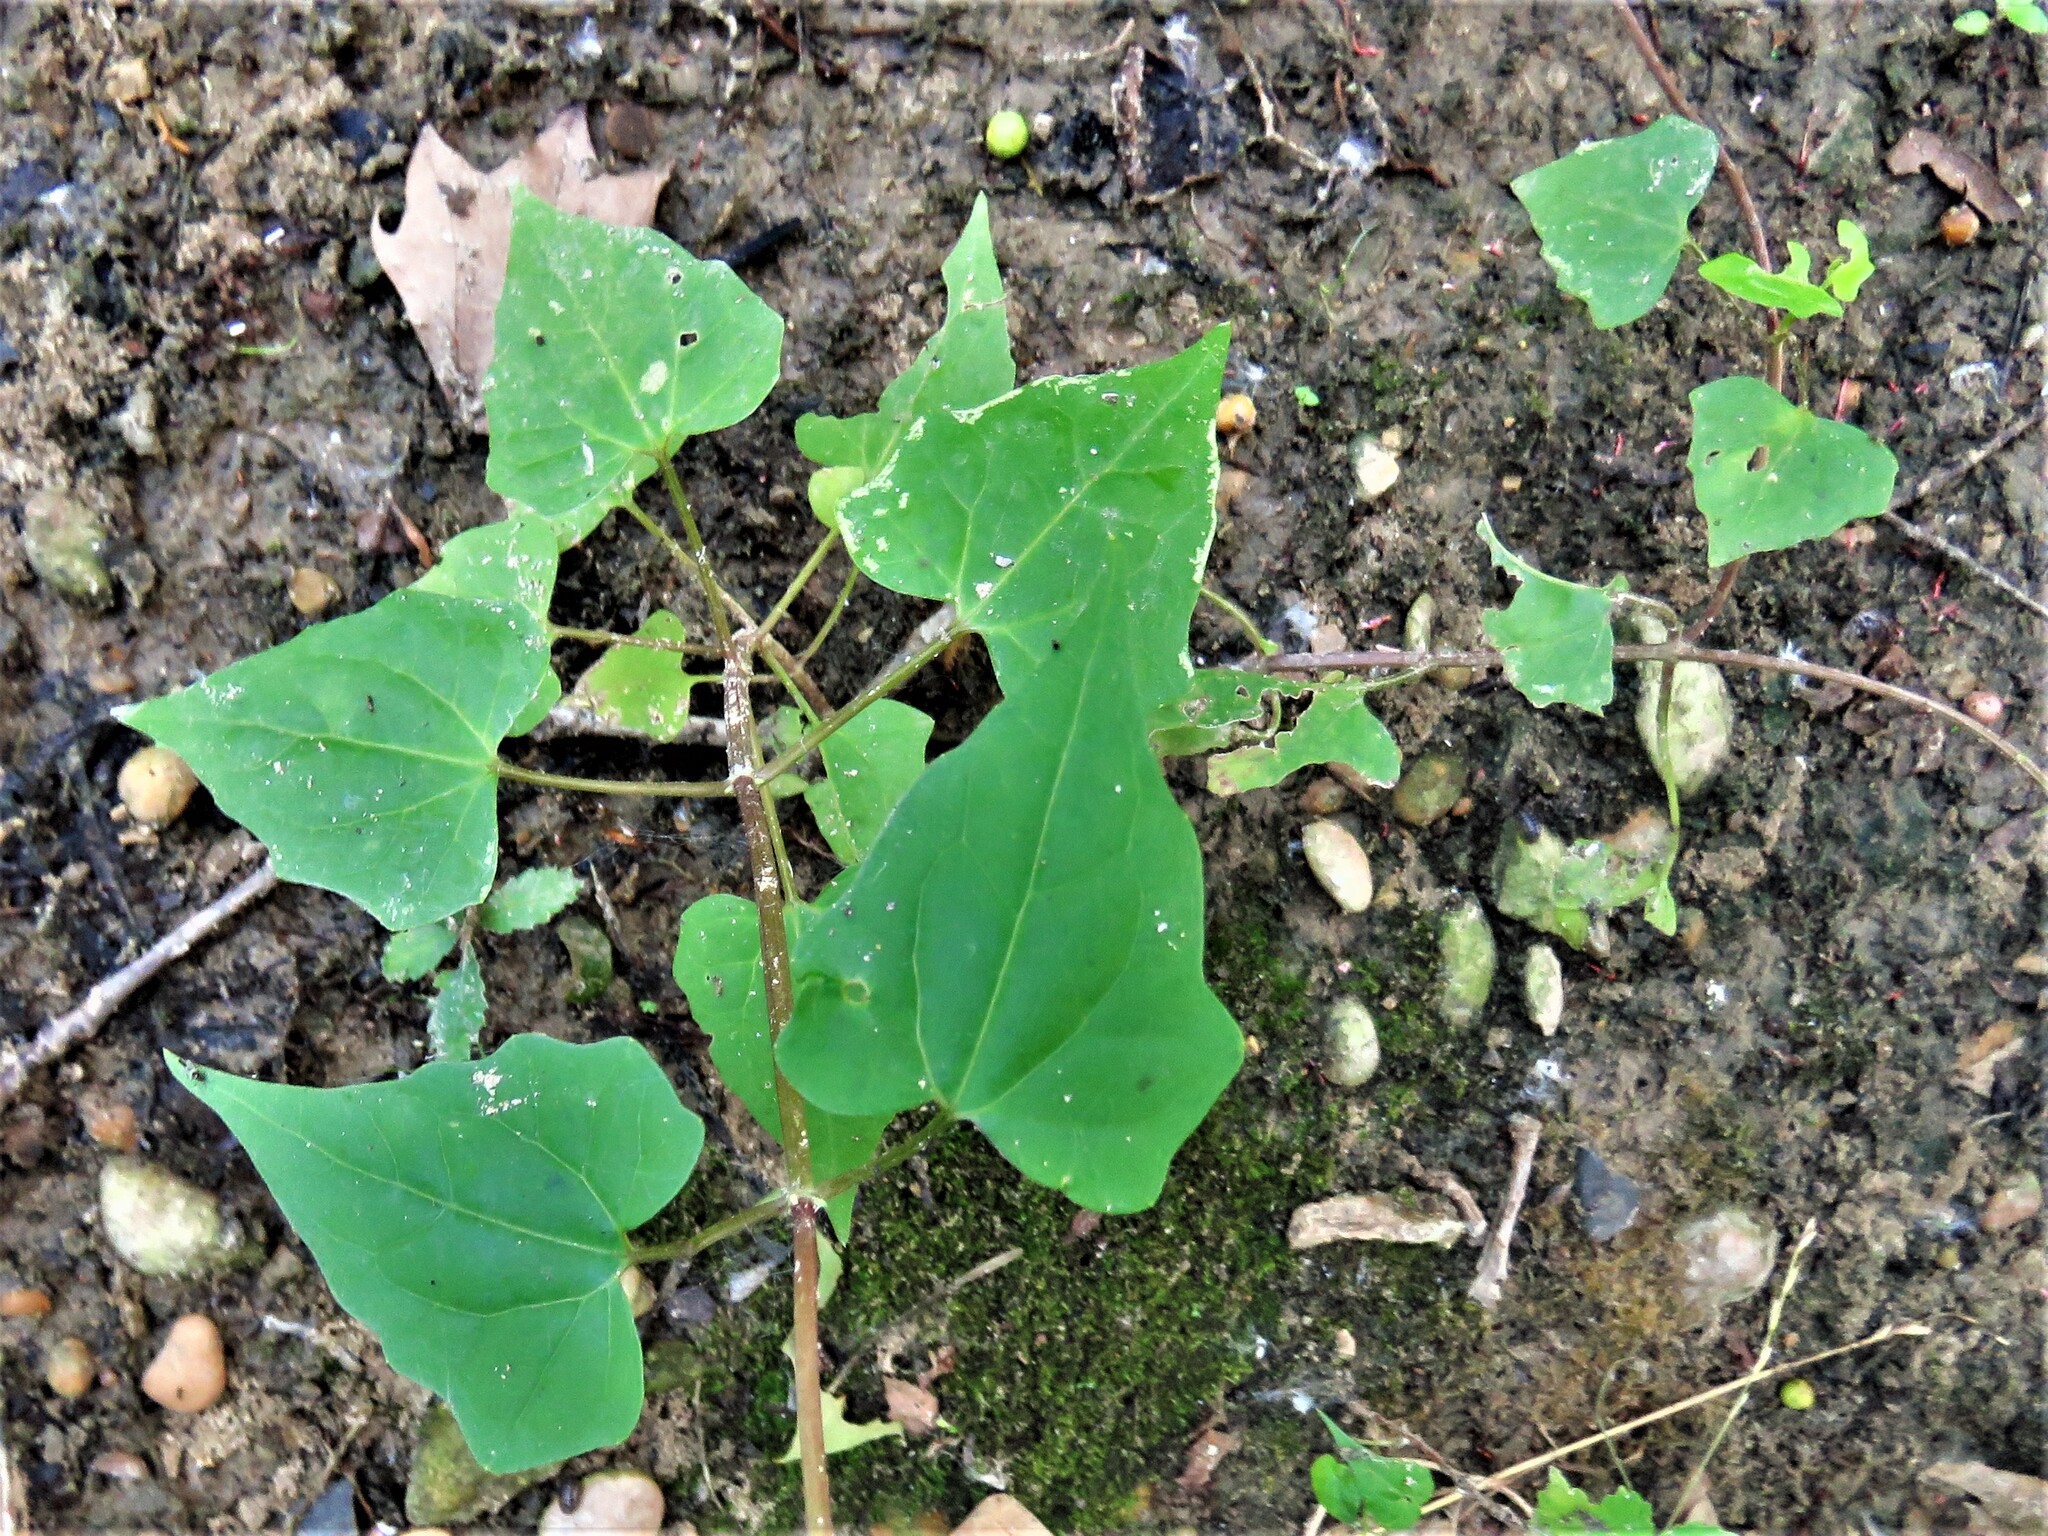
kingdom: Plantae
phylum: Tracheophyta
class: Magnoliopsida
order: Asterales
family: Asteraceae
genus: Mikania
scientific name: Mikania scandens
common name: Climbing hempvine
